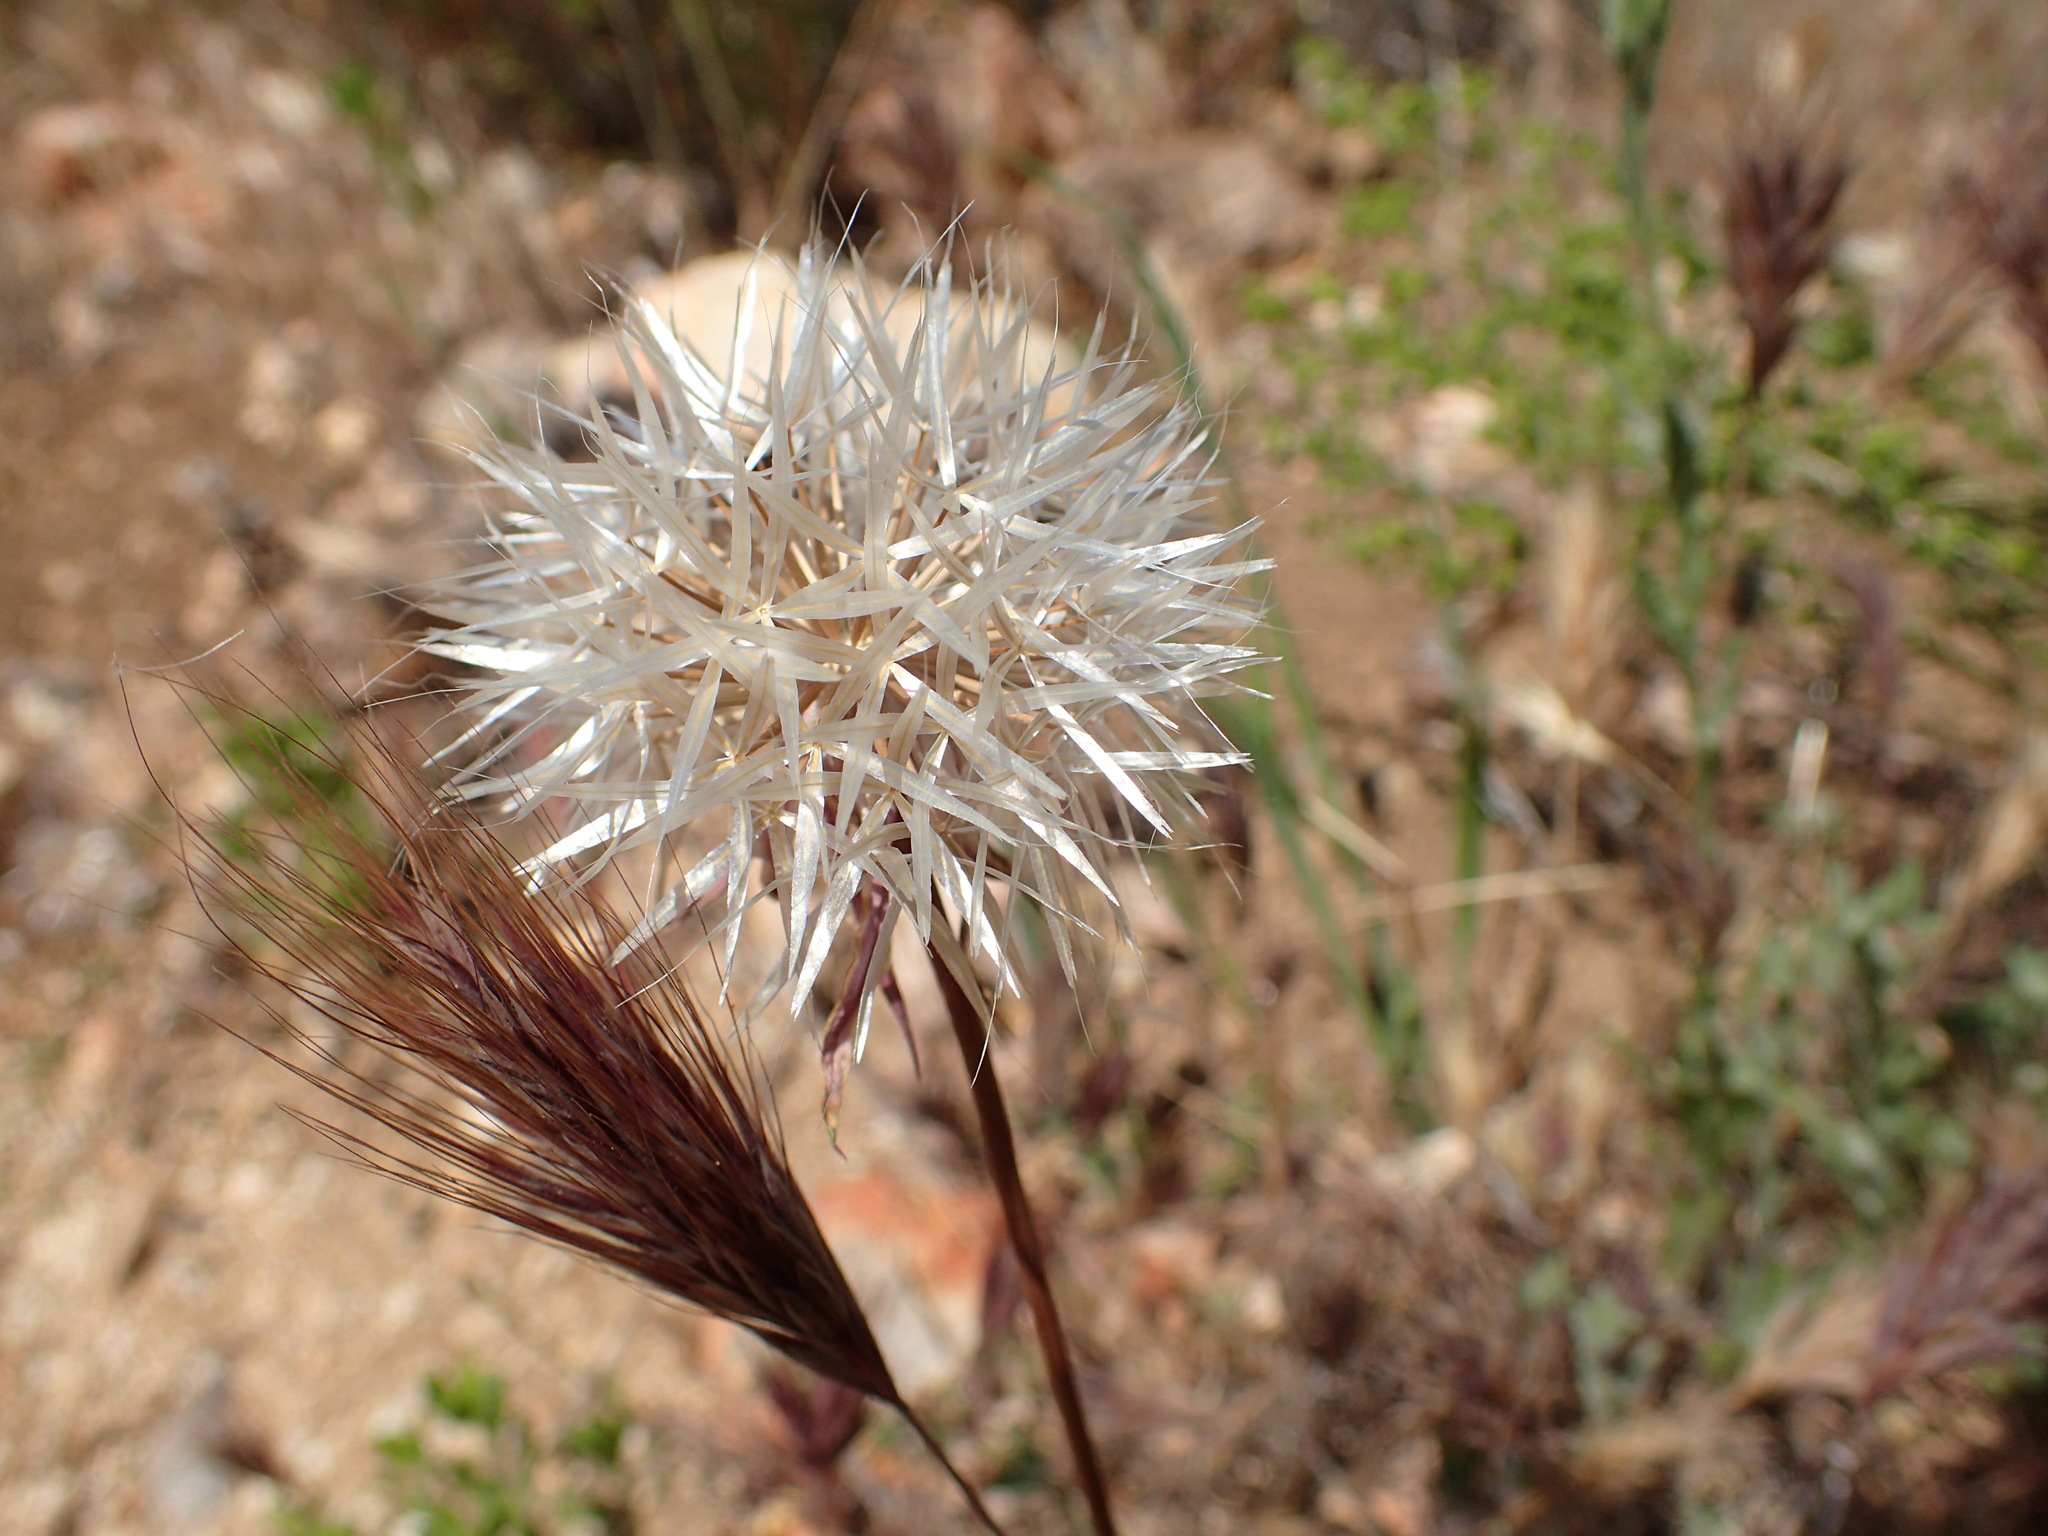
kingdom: Plantae
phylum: Tracheophyta
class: Magnoliopsida
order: Asterales
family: Asteraceae
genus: Microseris
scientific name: Microseris lindleyi
